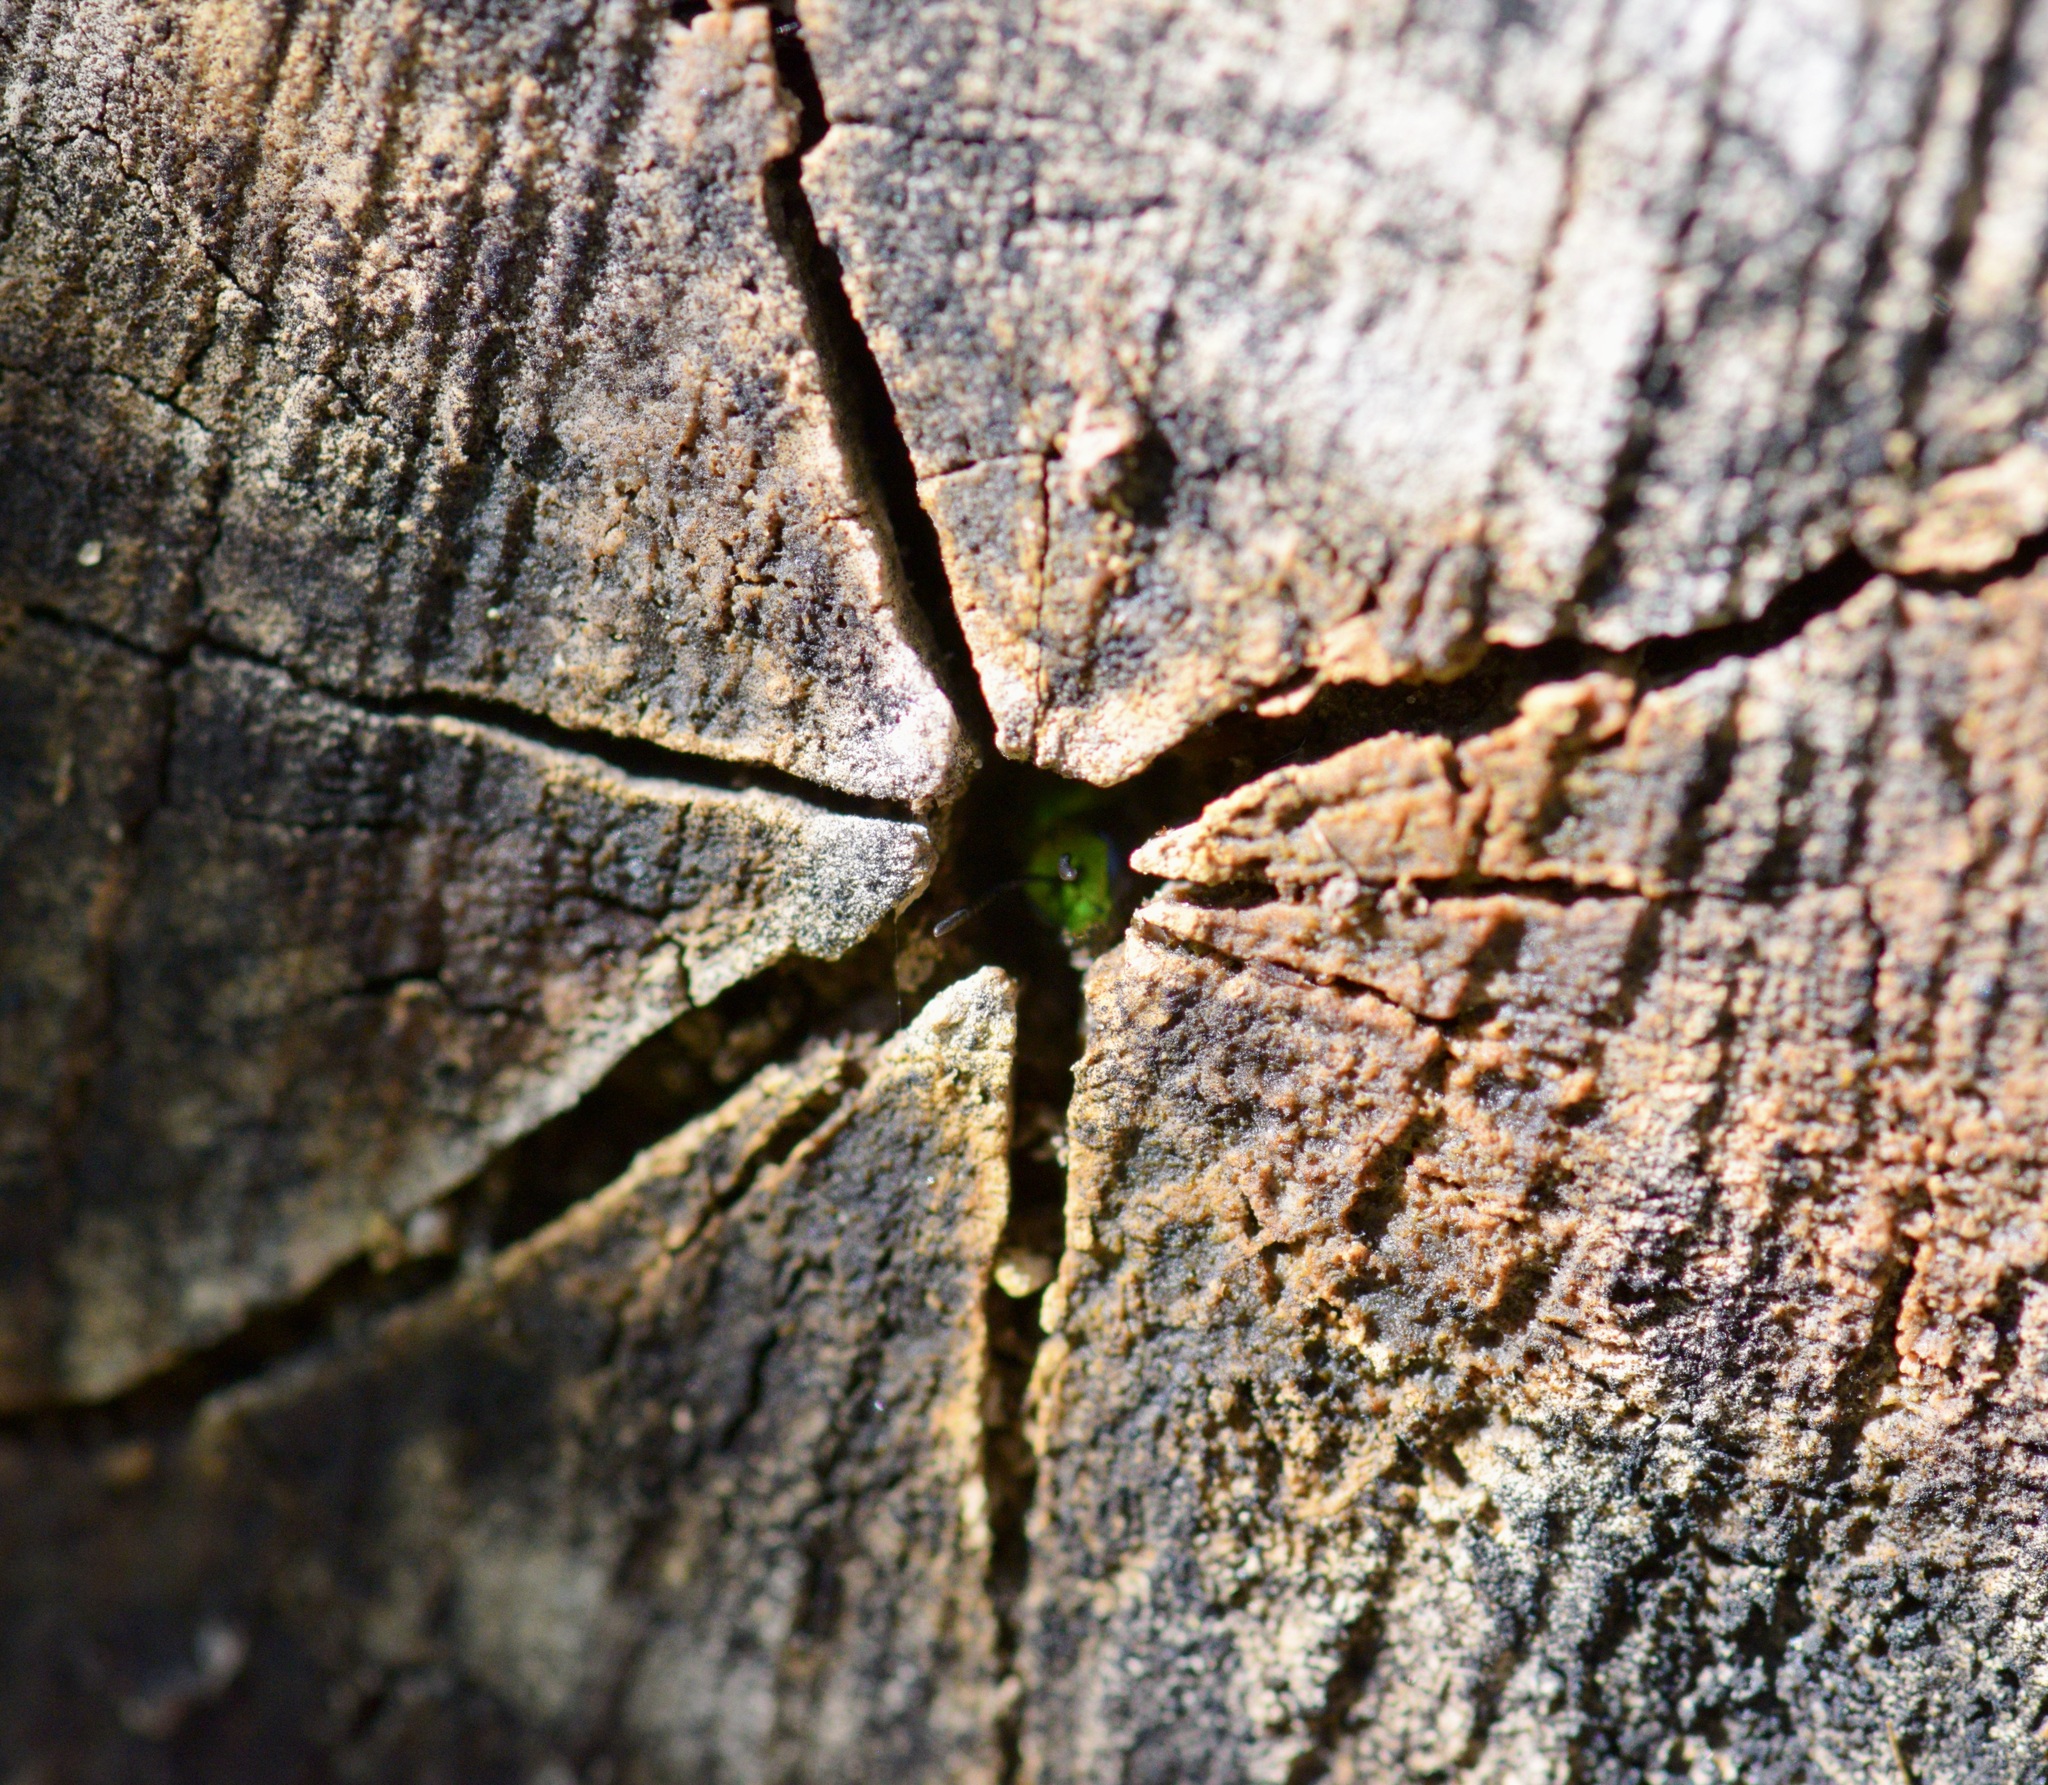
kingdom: Animalia
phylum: Arthropoda
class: Insecta
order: Hymenoptera
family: Halictidae
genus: Augochlora
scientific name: Augochlora pura
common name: Pure green sweat bee
